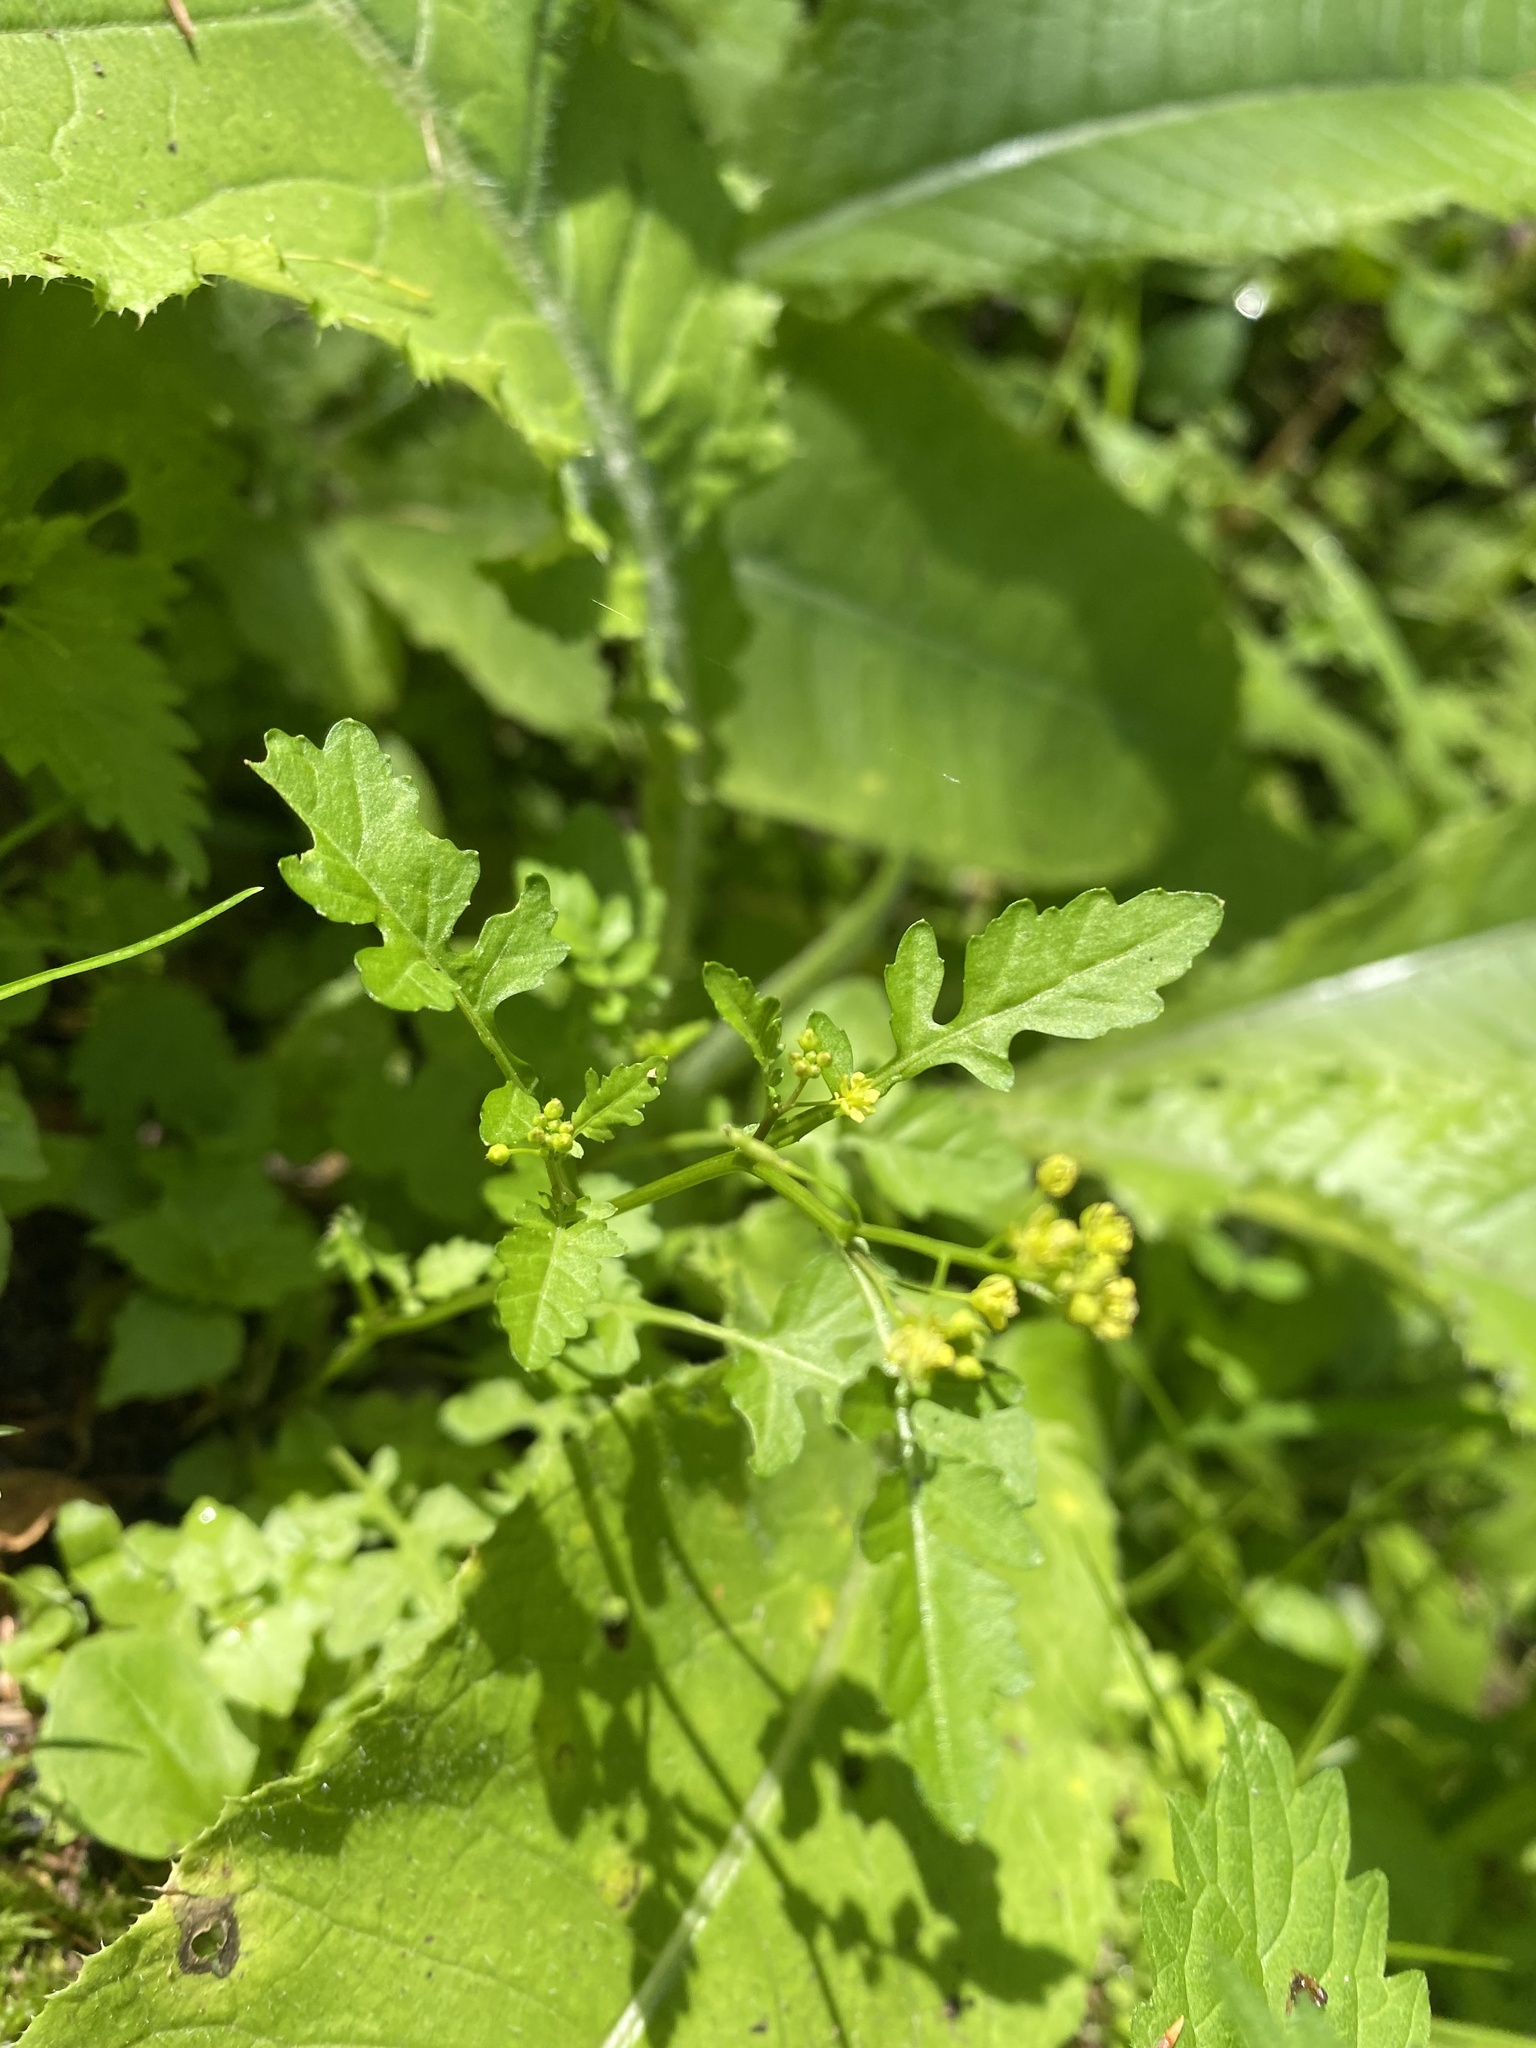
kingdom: Plantae
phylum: Tracheophyta
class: Magnoliopsida
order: Brassicales
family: Brassicaceae
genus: Rorippa
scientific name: Rorippa palustris
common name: Marsh yellow-cress
